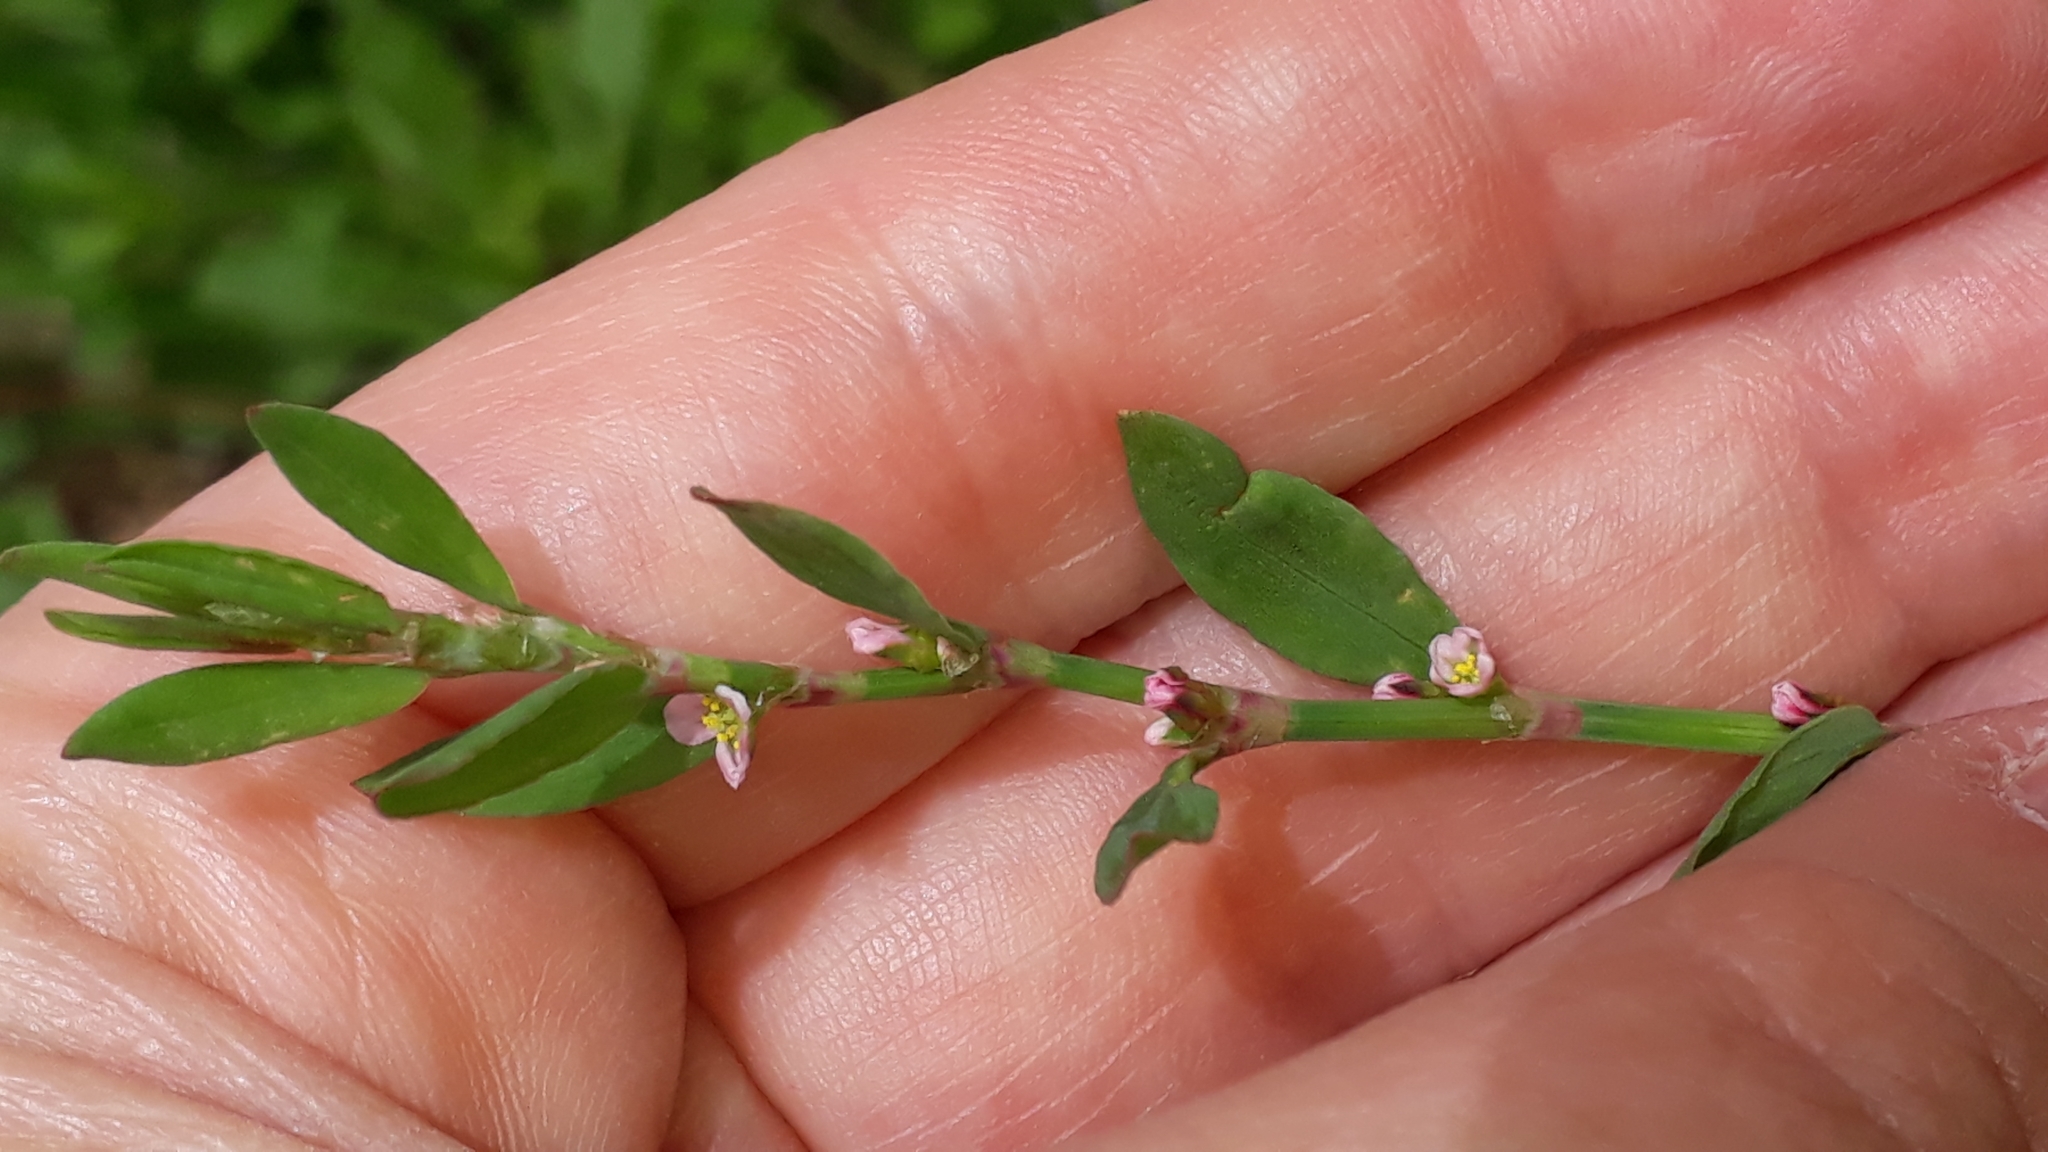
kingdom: Plantae
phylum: Tracheophyta
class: Magnoliopsida
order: Caryophyllales
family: Polygonaceae
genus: Polygonum
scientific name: Polygonum aviculare
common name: Prostrate knotweed
